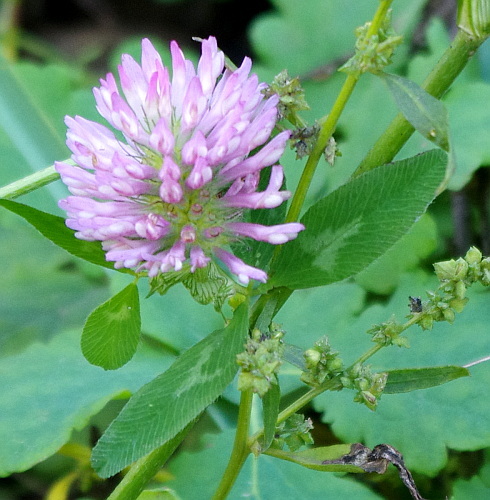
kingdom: Plantae
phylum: Tracheophyta
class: Magnoliopsida
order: Fabales
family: Fabaceae
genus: Trifolium
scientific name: Trifolium pratense
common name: Red clover
